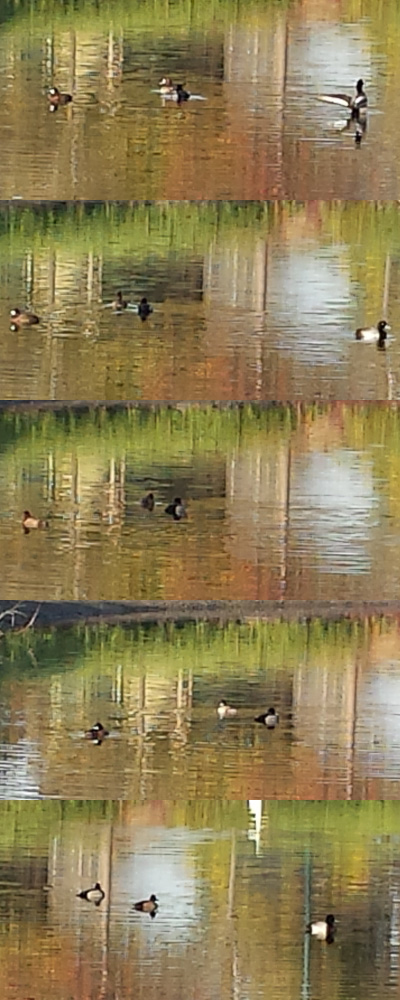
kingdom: Animalia
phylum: Chordata
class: Aves
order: Anseriformes
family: Anatidae
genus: Aythya
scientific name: Aythya marila
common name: Greater scaup
